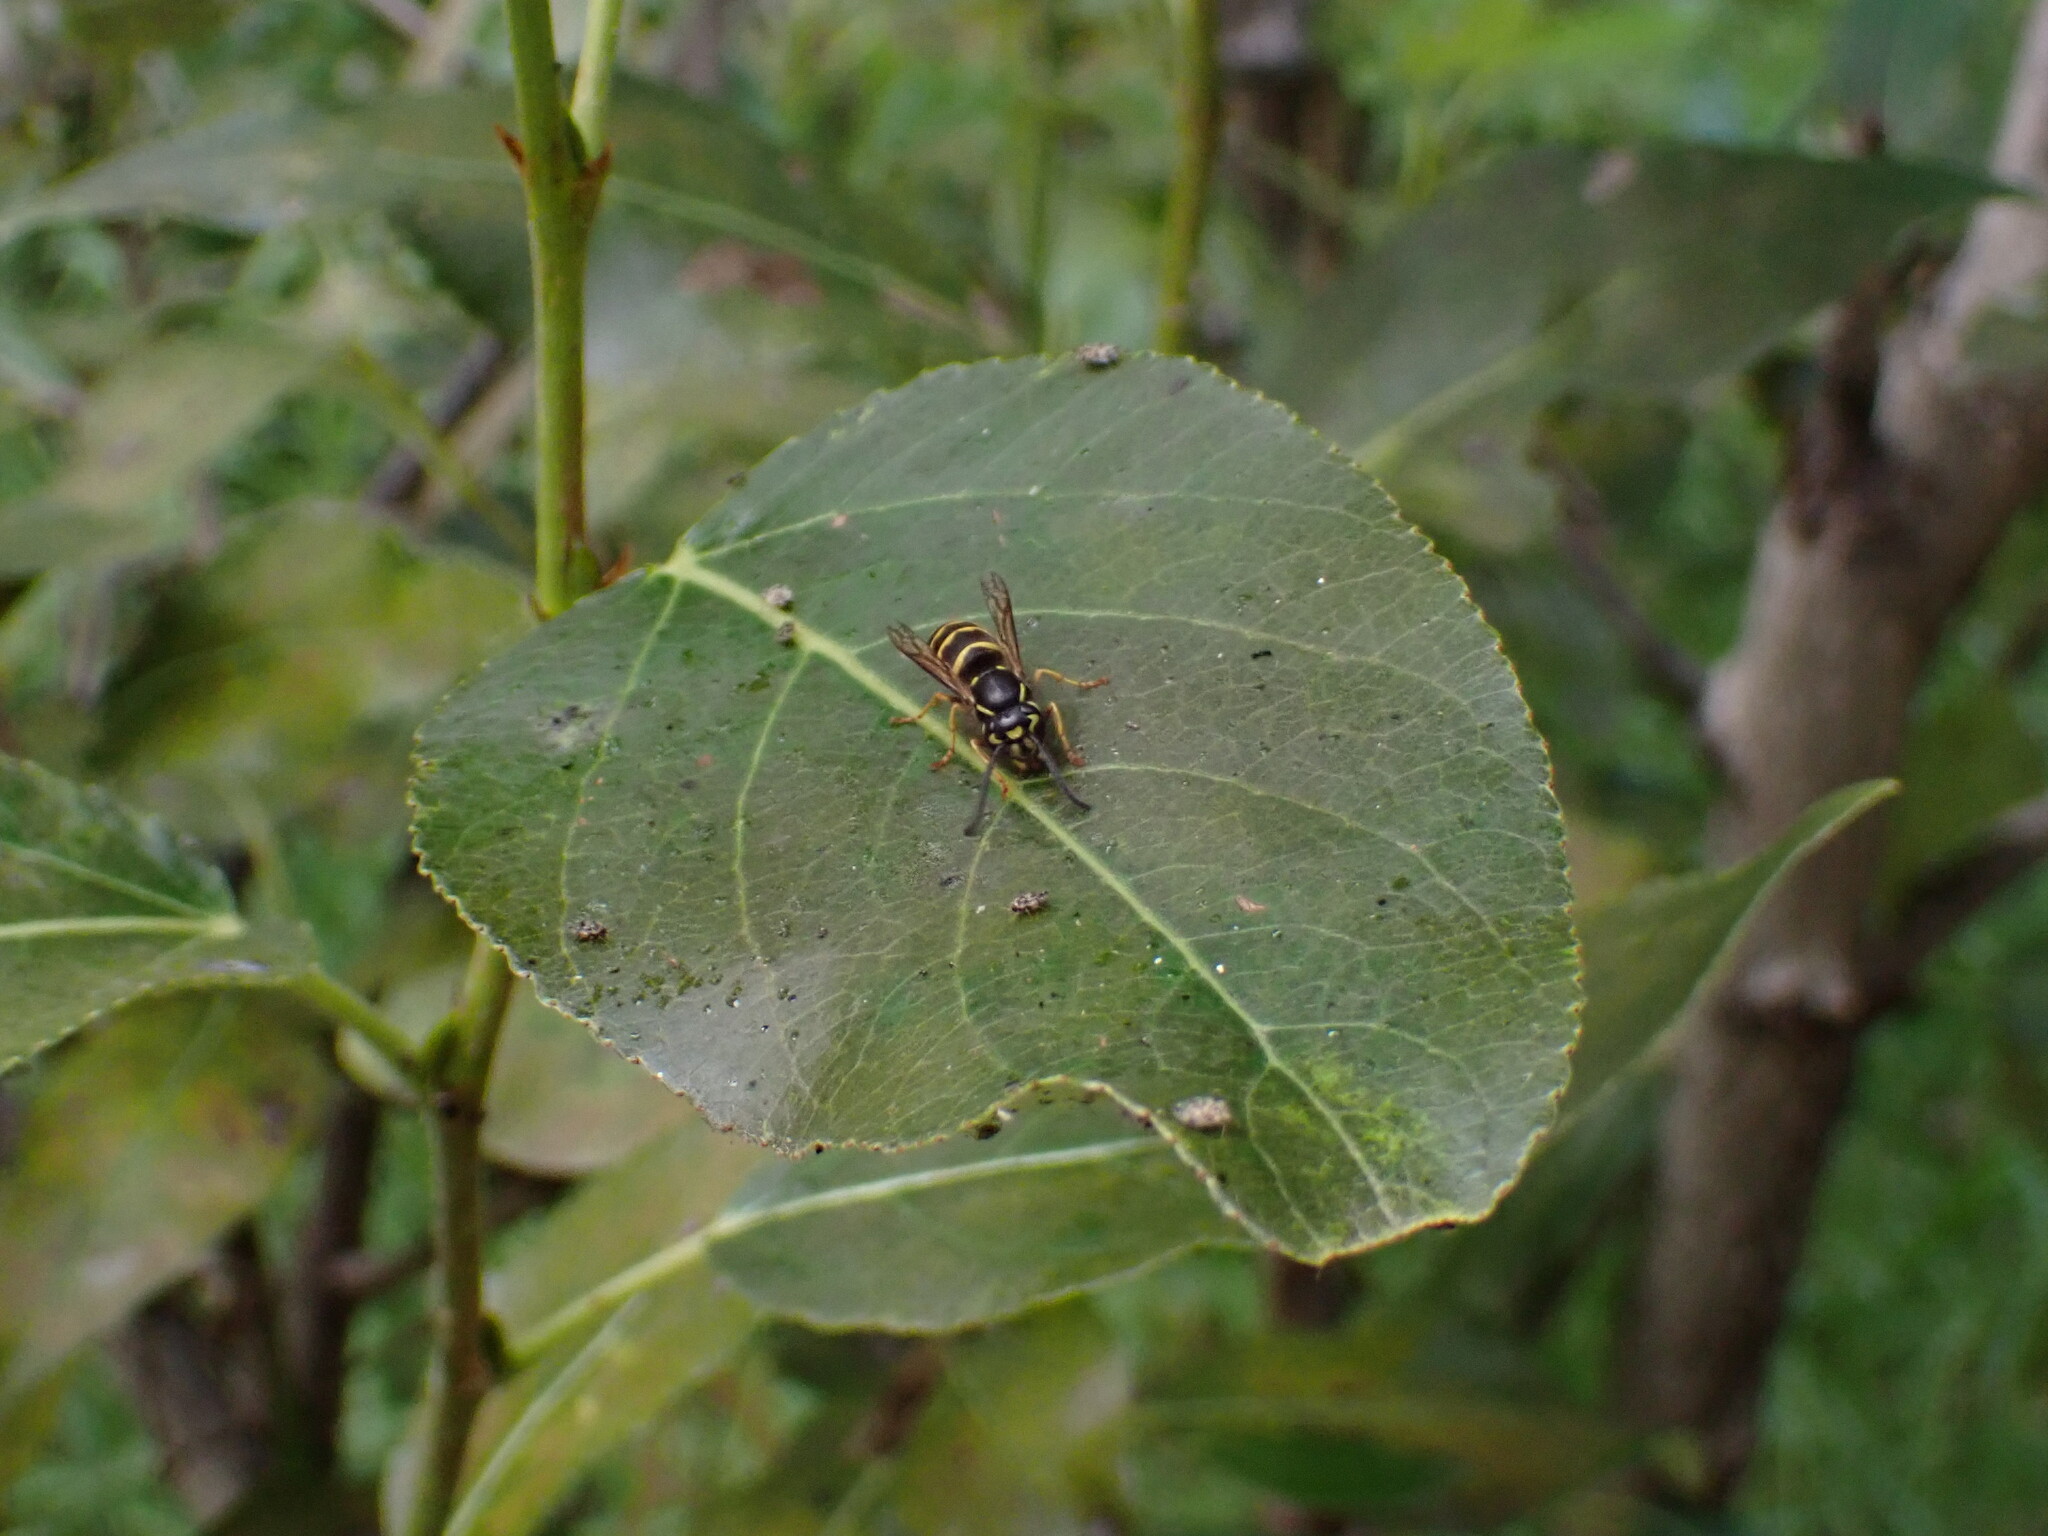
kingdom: Animalia
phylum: Arthropoda
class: Insecta
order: Hymenoptera
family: Vespidae
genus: Vespula
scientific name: Vespula alascensis
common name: Alaska yellowjacket
